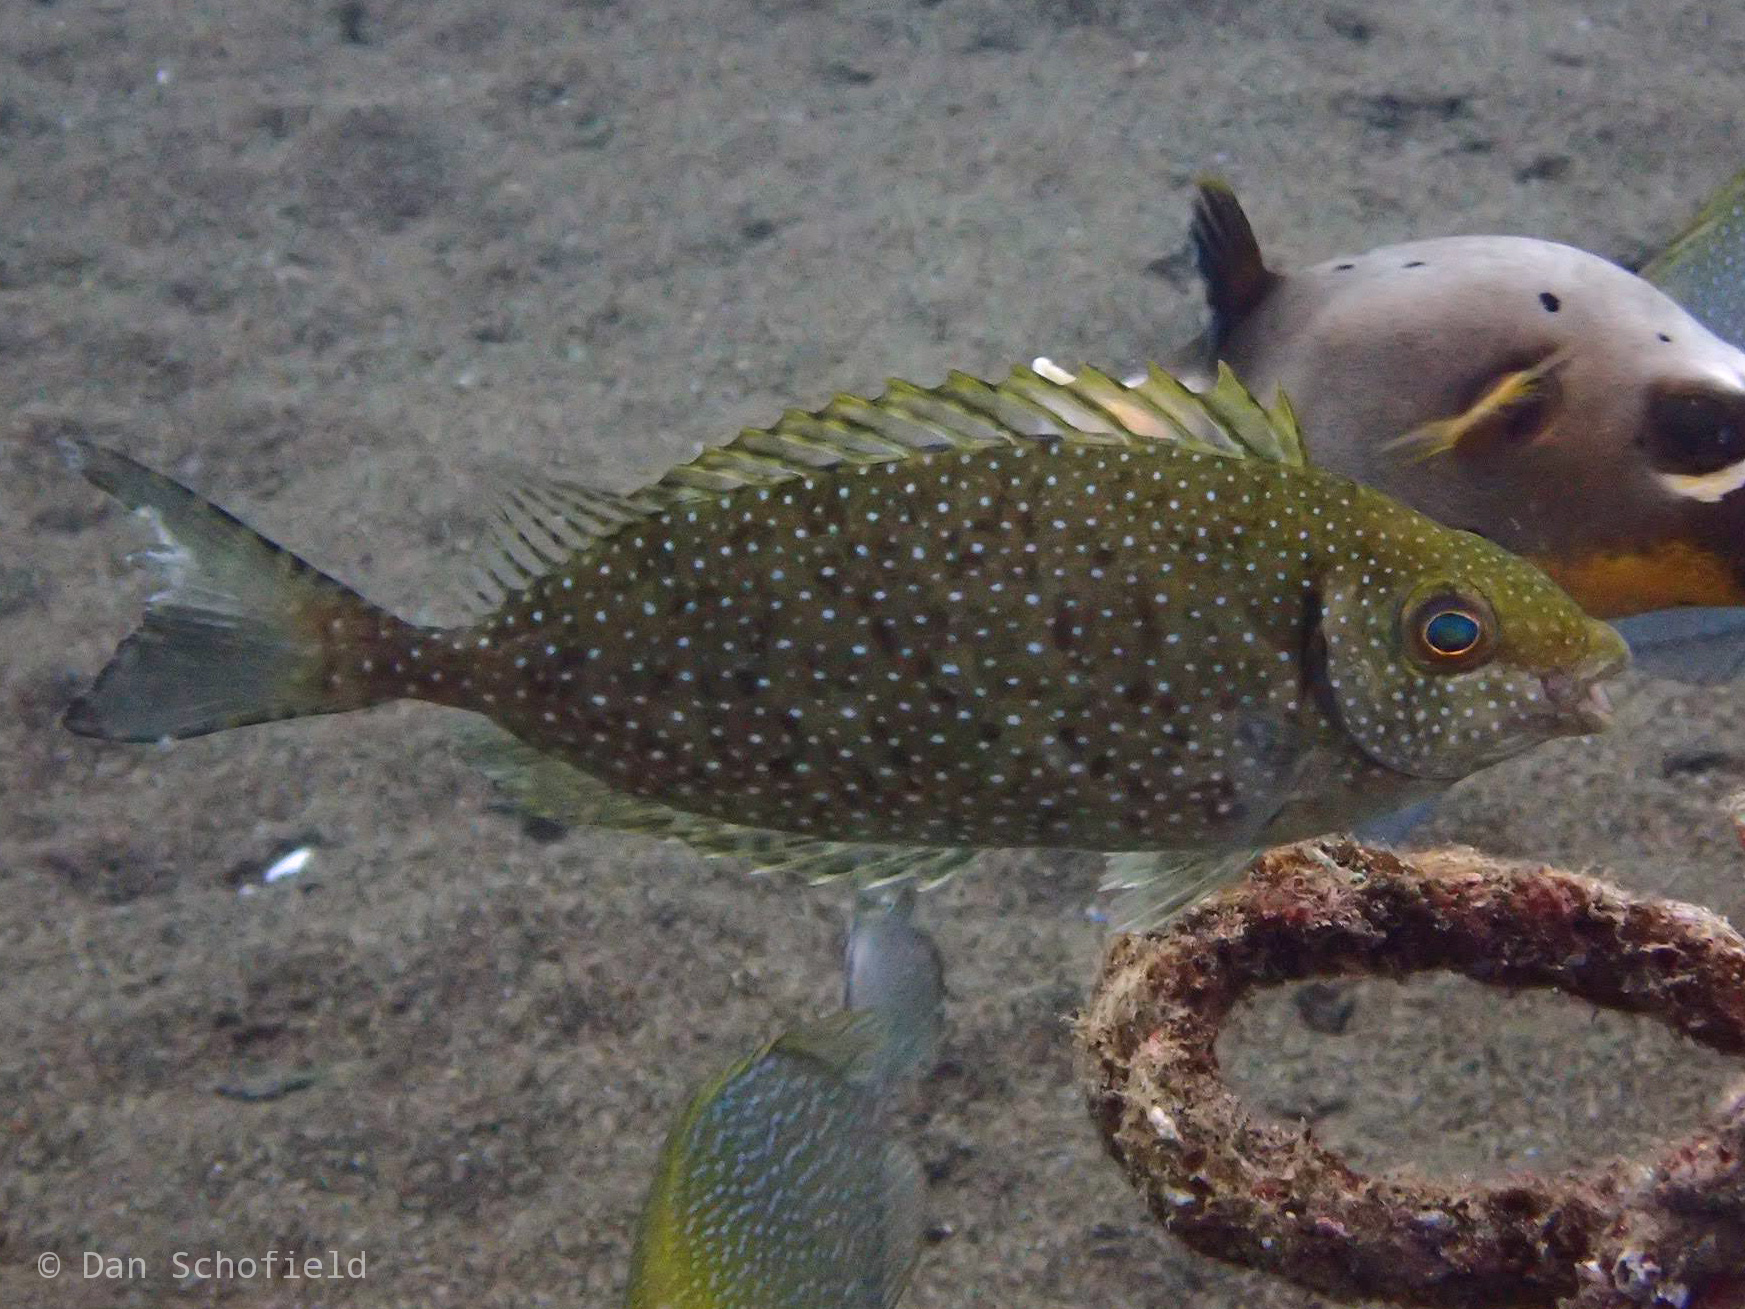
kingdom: Animalia
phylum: Chordata
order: Perciformes
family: Siganidae
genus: Siganus
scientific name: Siganus fuscescens
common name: Dusky rabbitfish
